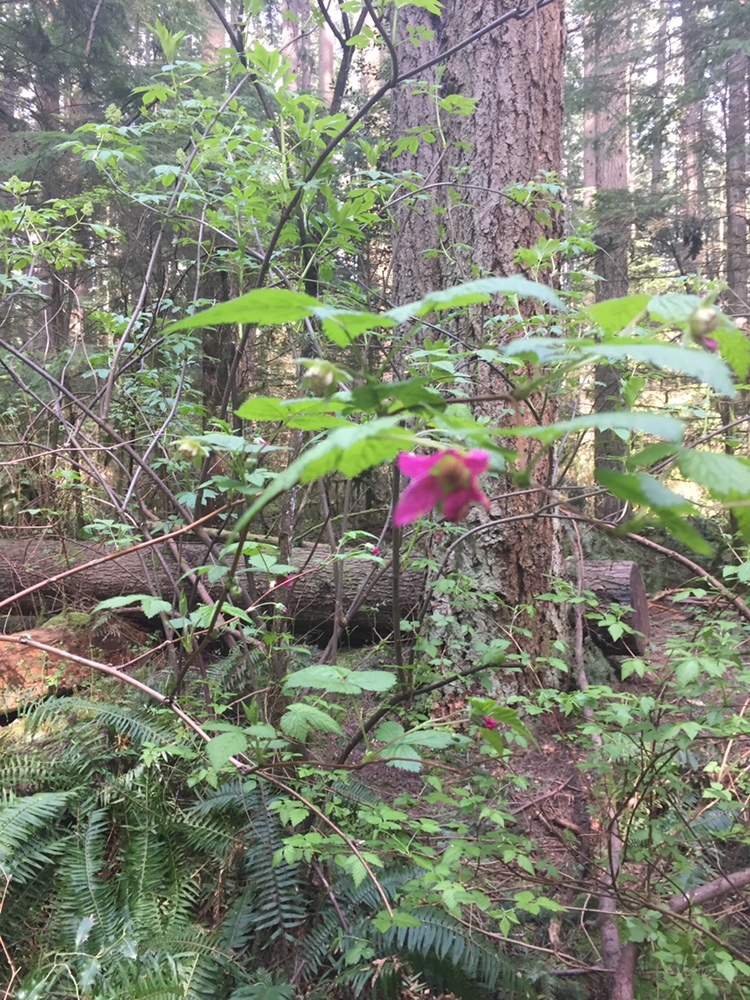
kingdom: Plantae
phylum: Tracheophyta
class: Magnoliopsida
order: Rosales
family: Rosaceae
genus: Rubus
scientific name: Rubus spectabilis
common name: Salmonberry
